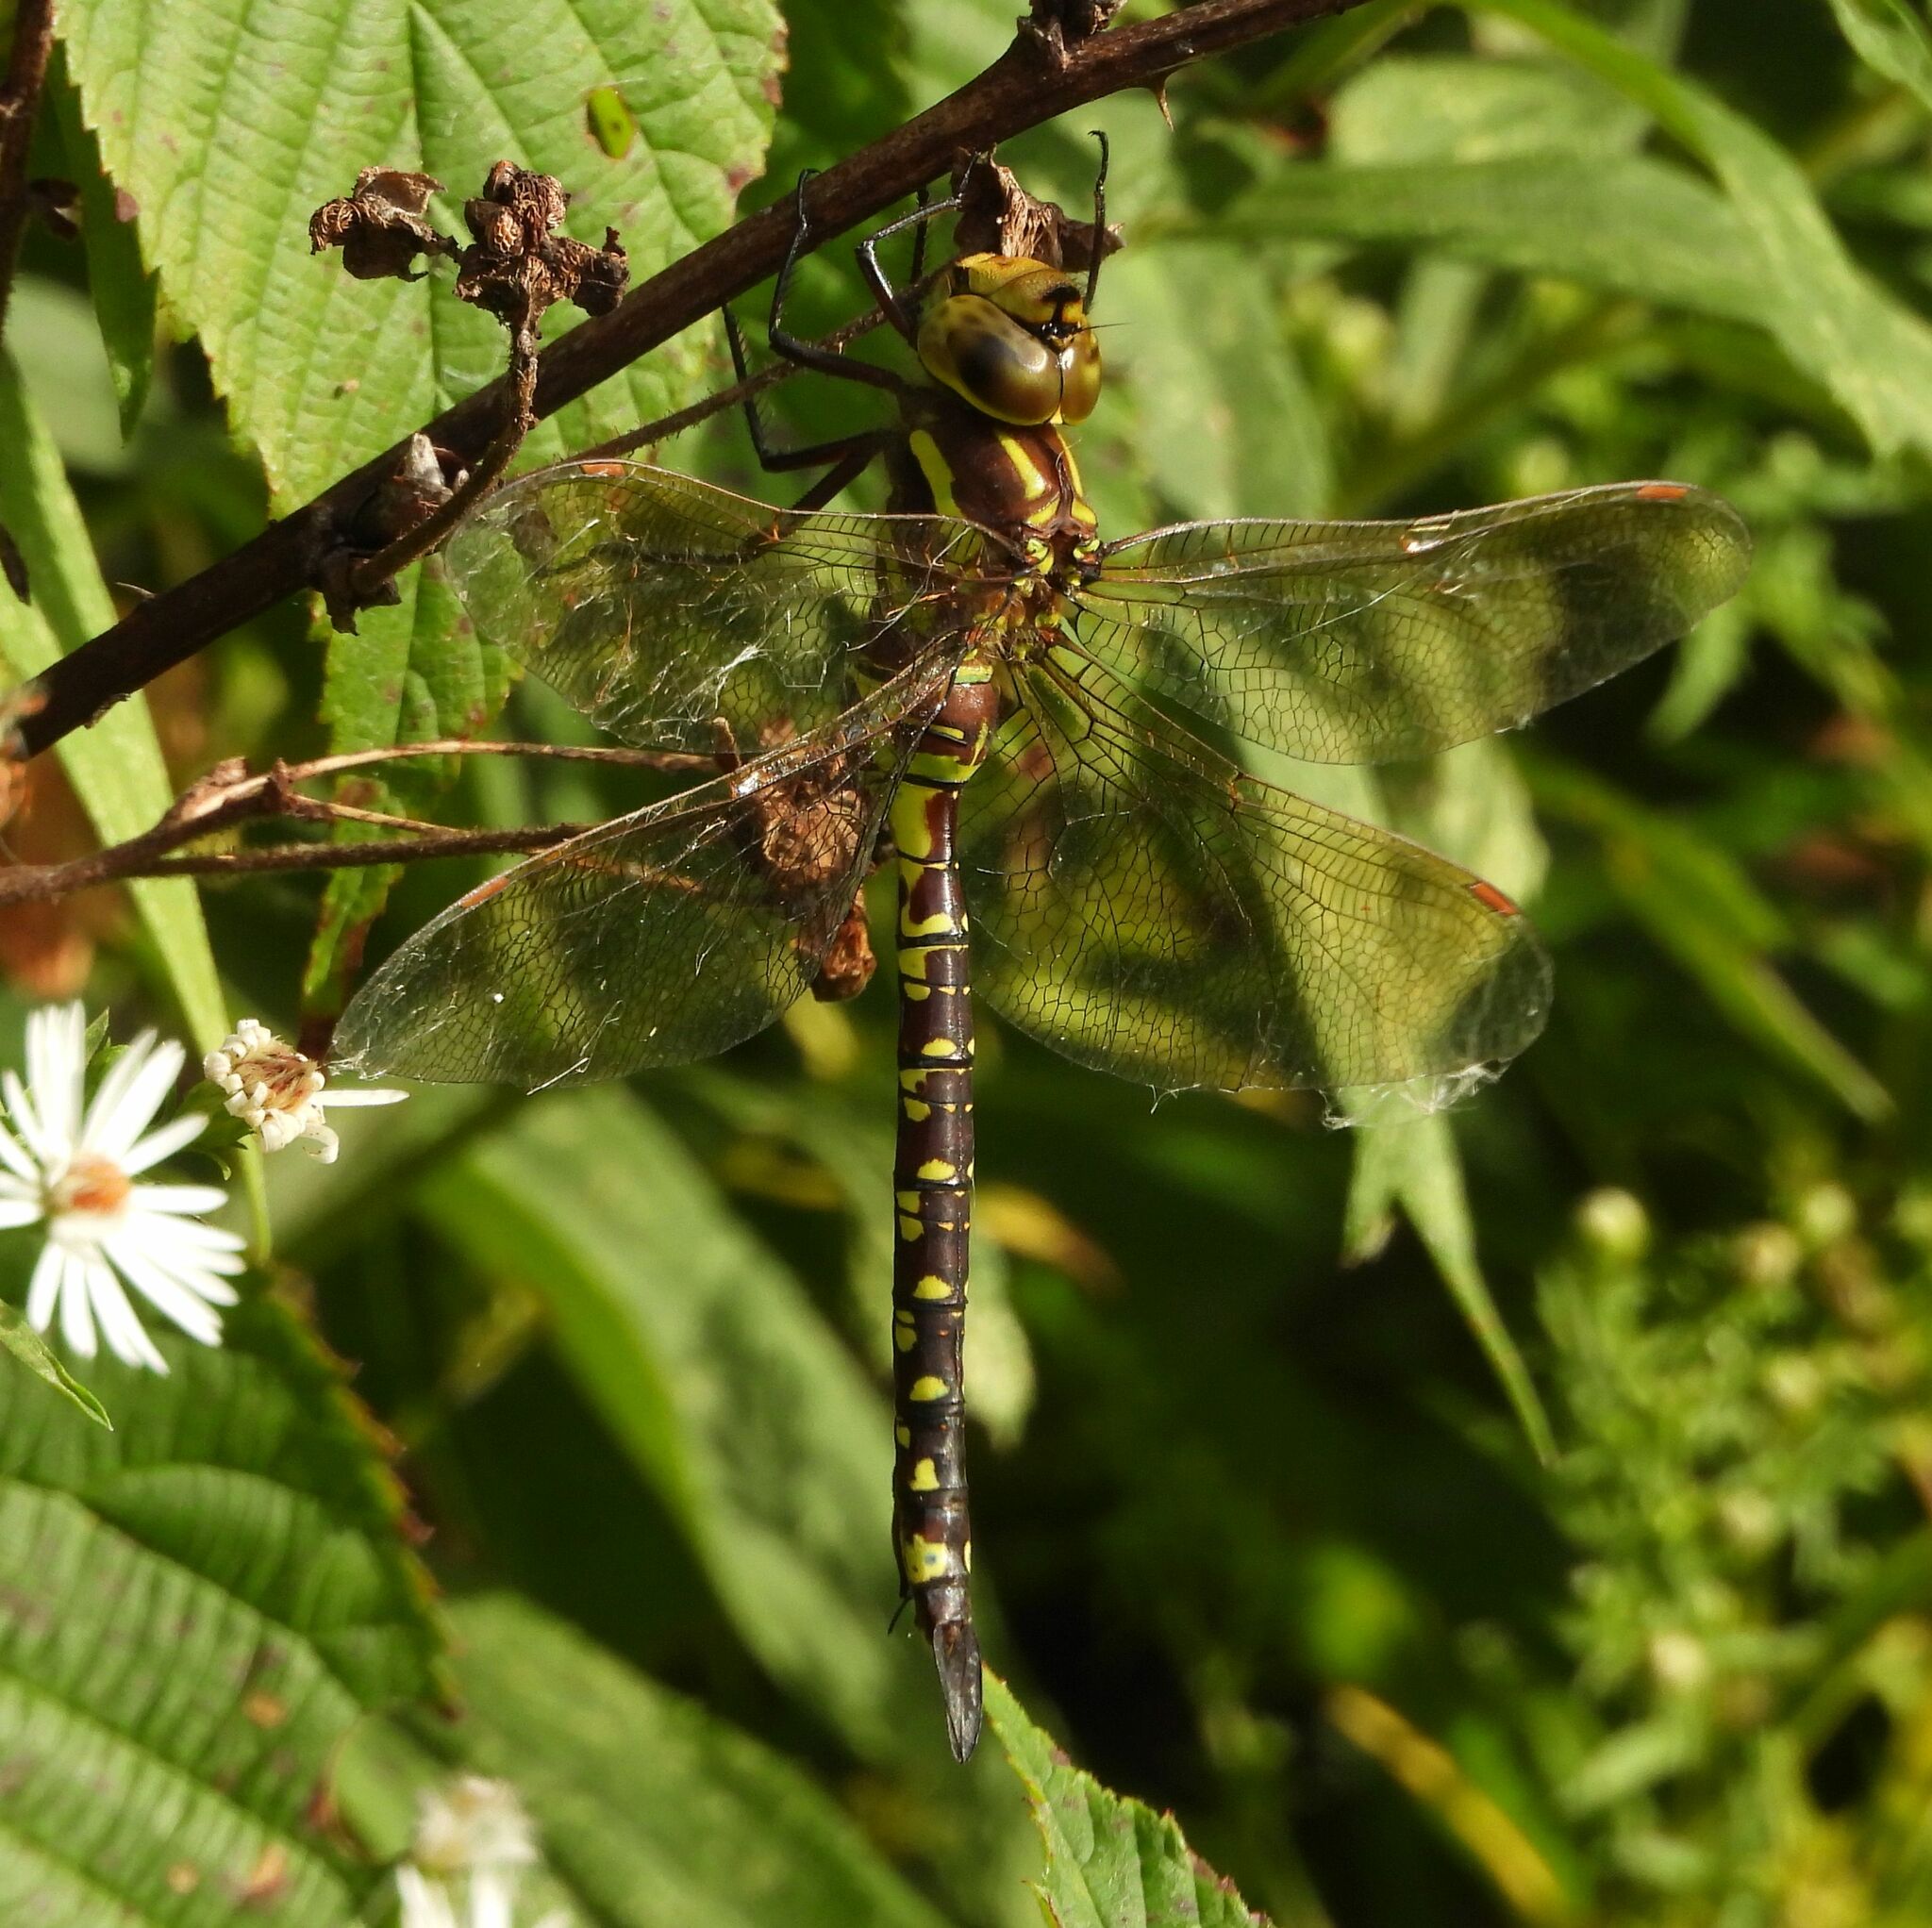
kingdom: Animalia
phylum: Arthropoda
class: Insecta
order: Odonata
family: Aeshnidae
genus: Aeshna
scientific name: Aeshna constricta
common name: Lance-tipped darner
